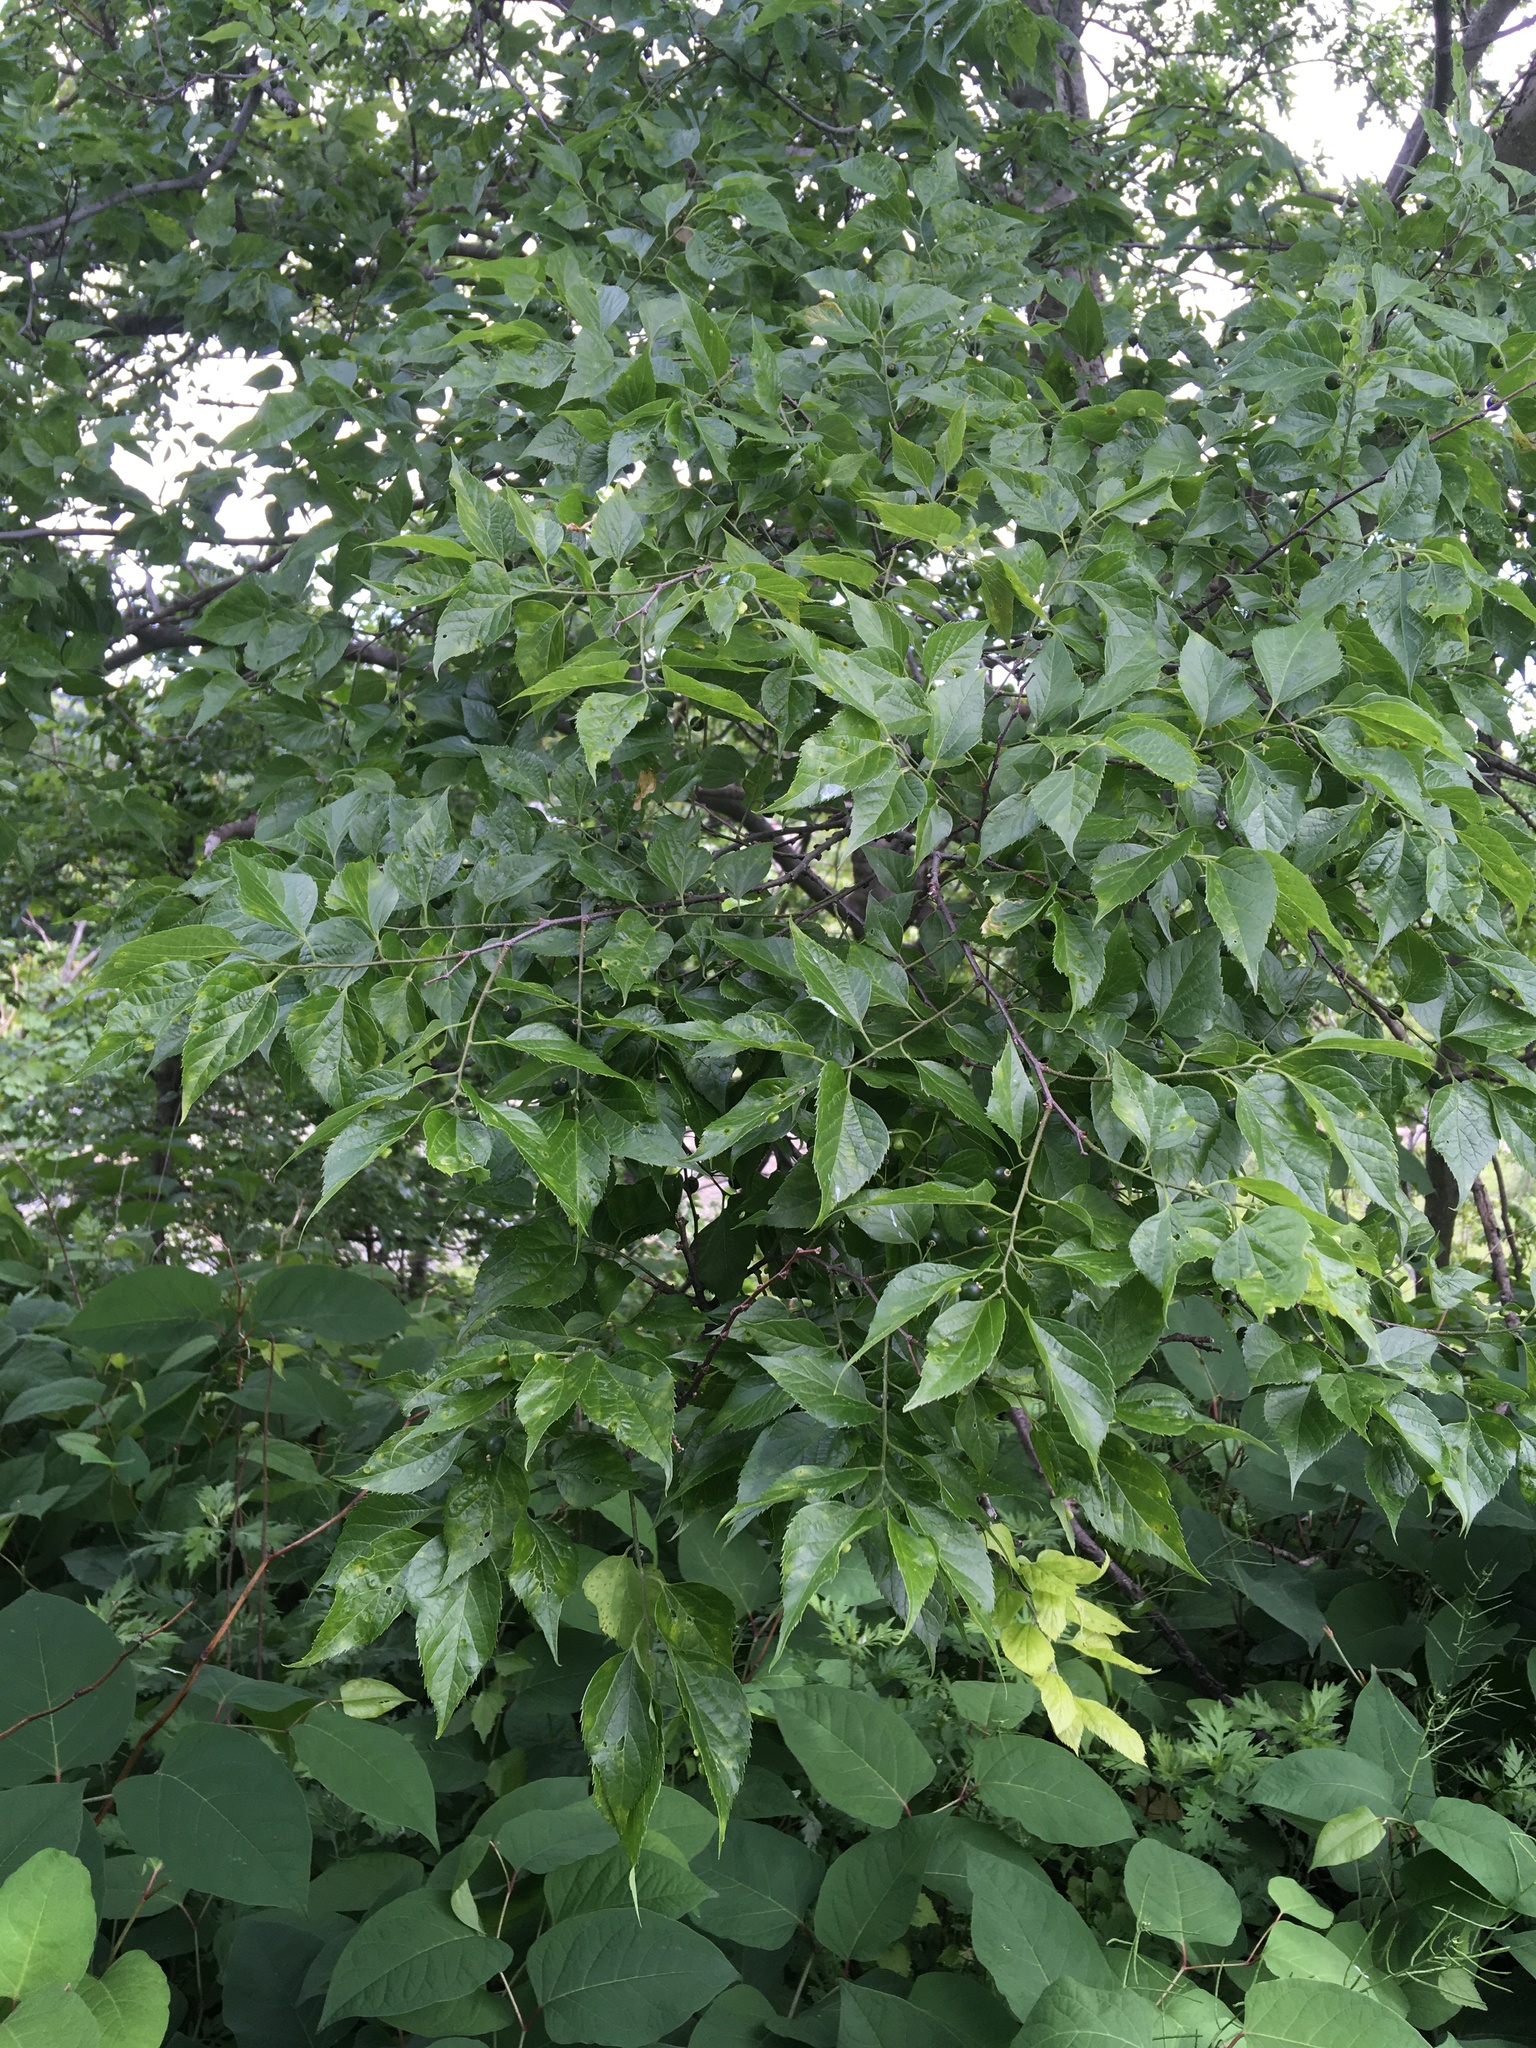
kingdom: Plantae
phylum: Tracheophyta
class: Magnoliopsida
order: Rosales
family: Cannabaceae
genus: Celtis
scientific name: Celtis occidentalis
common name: Common hackberry
